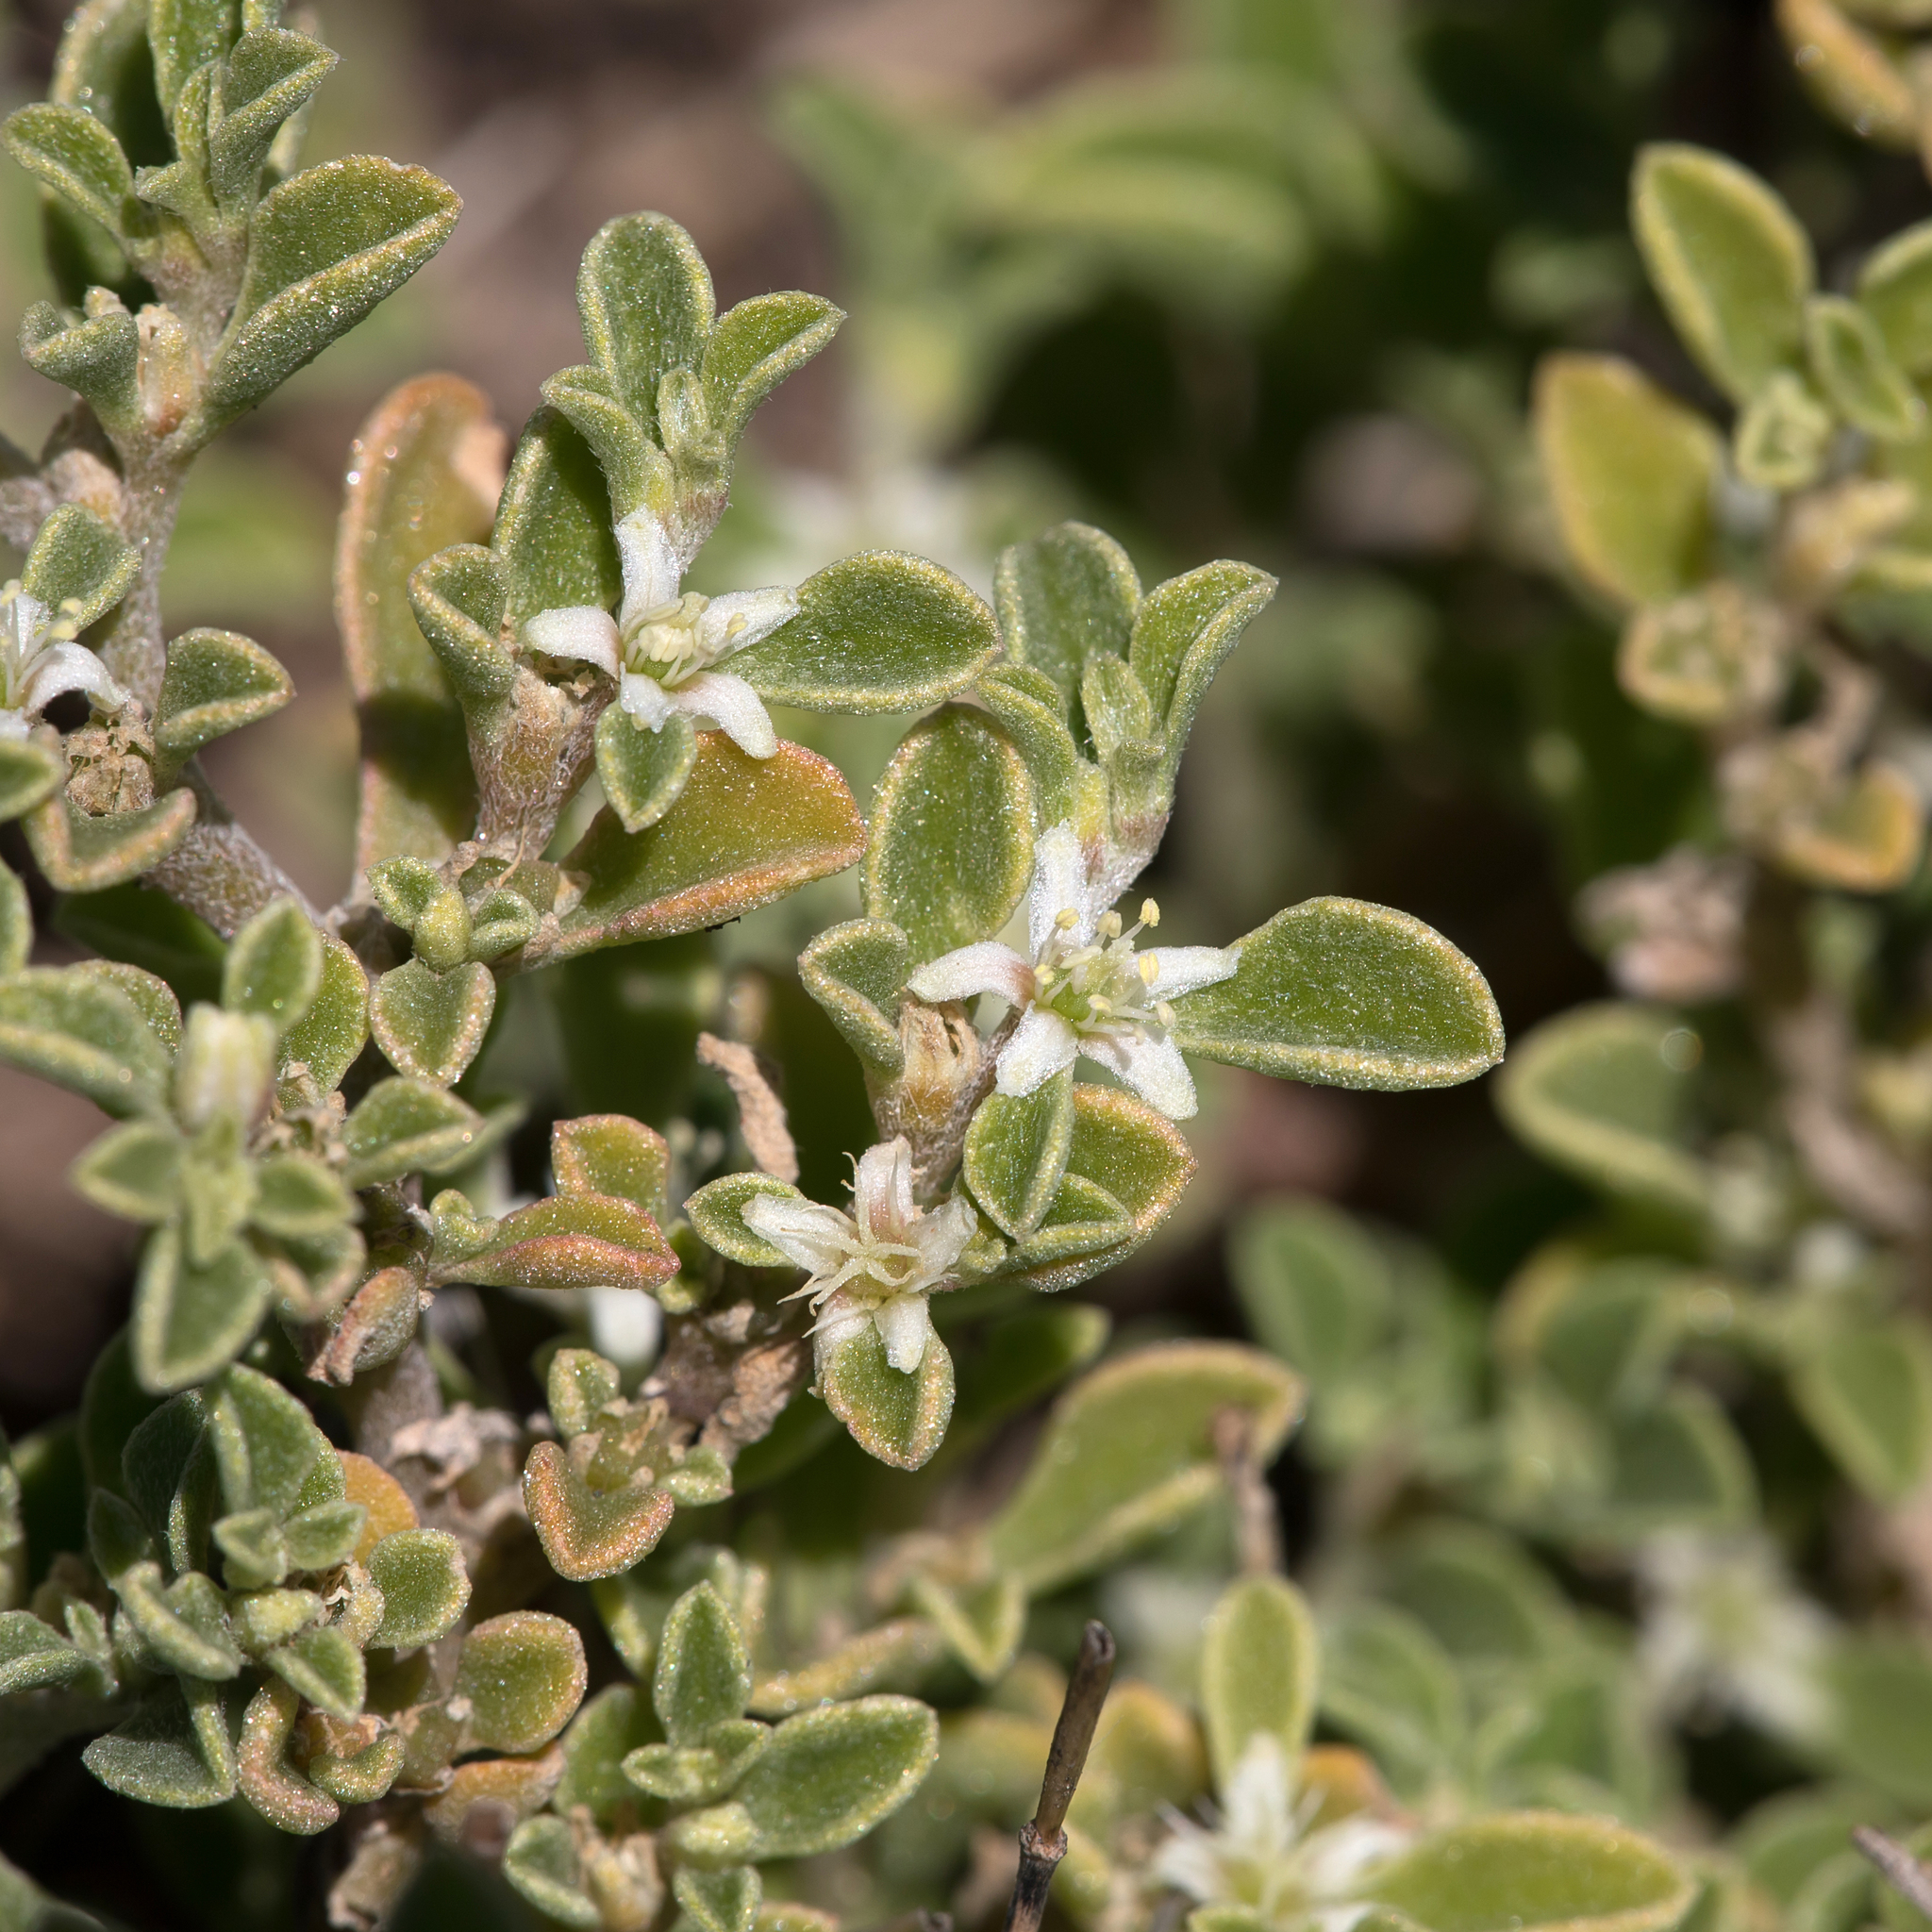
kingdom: Plantae
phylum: Tracheophyta
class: Magnoliopsida
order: Caryophyllales
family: Aizoaceae
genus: Aizoon
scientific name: Aizoon pubescens
